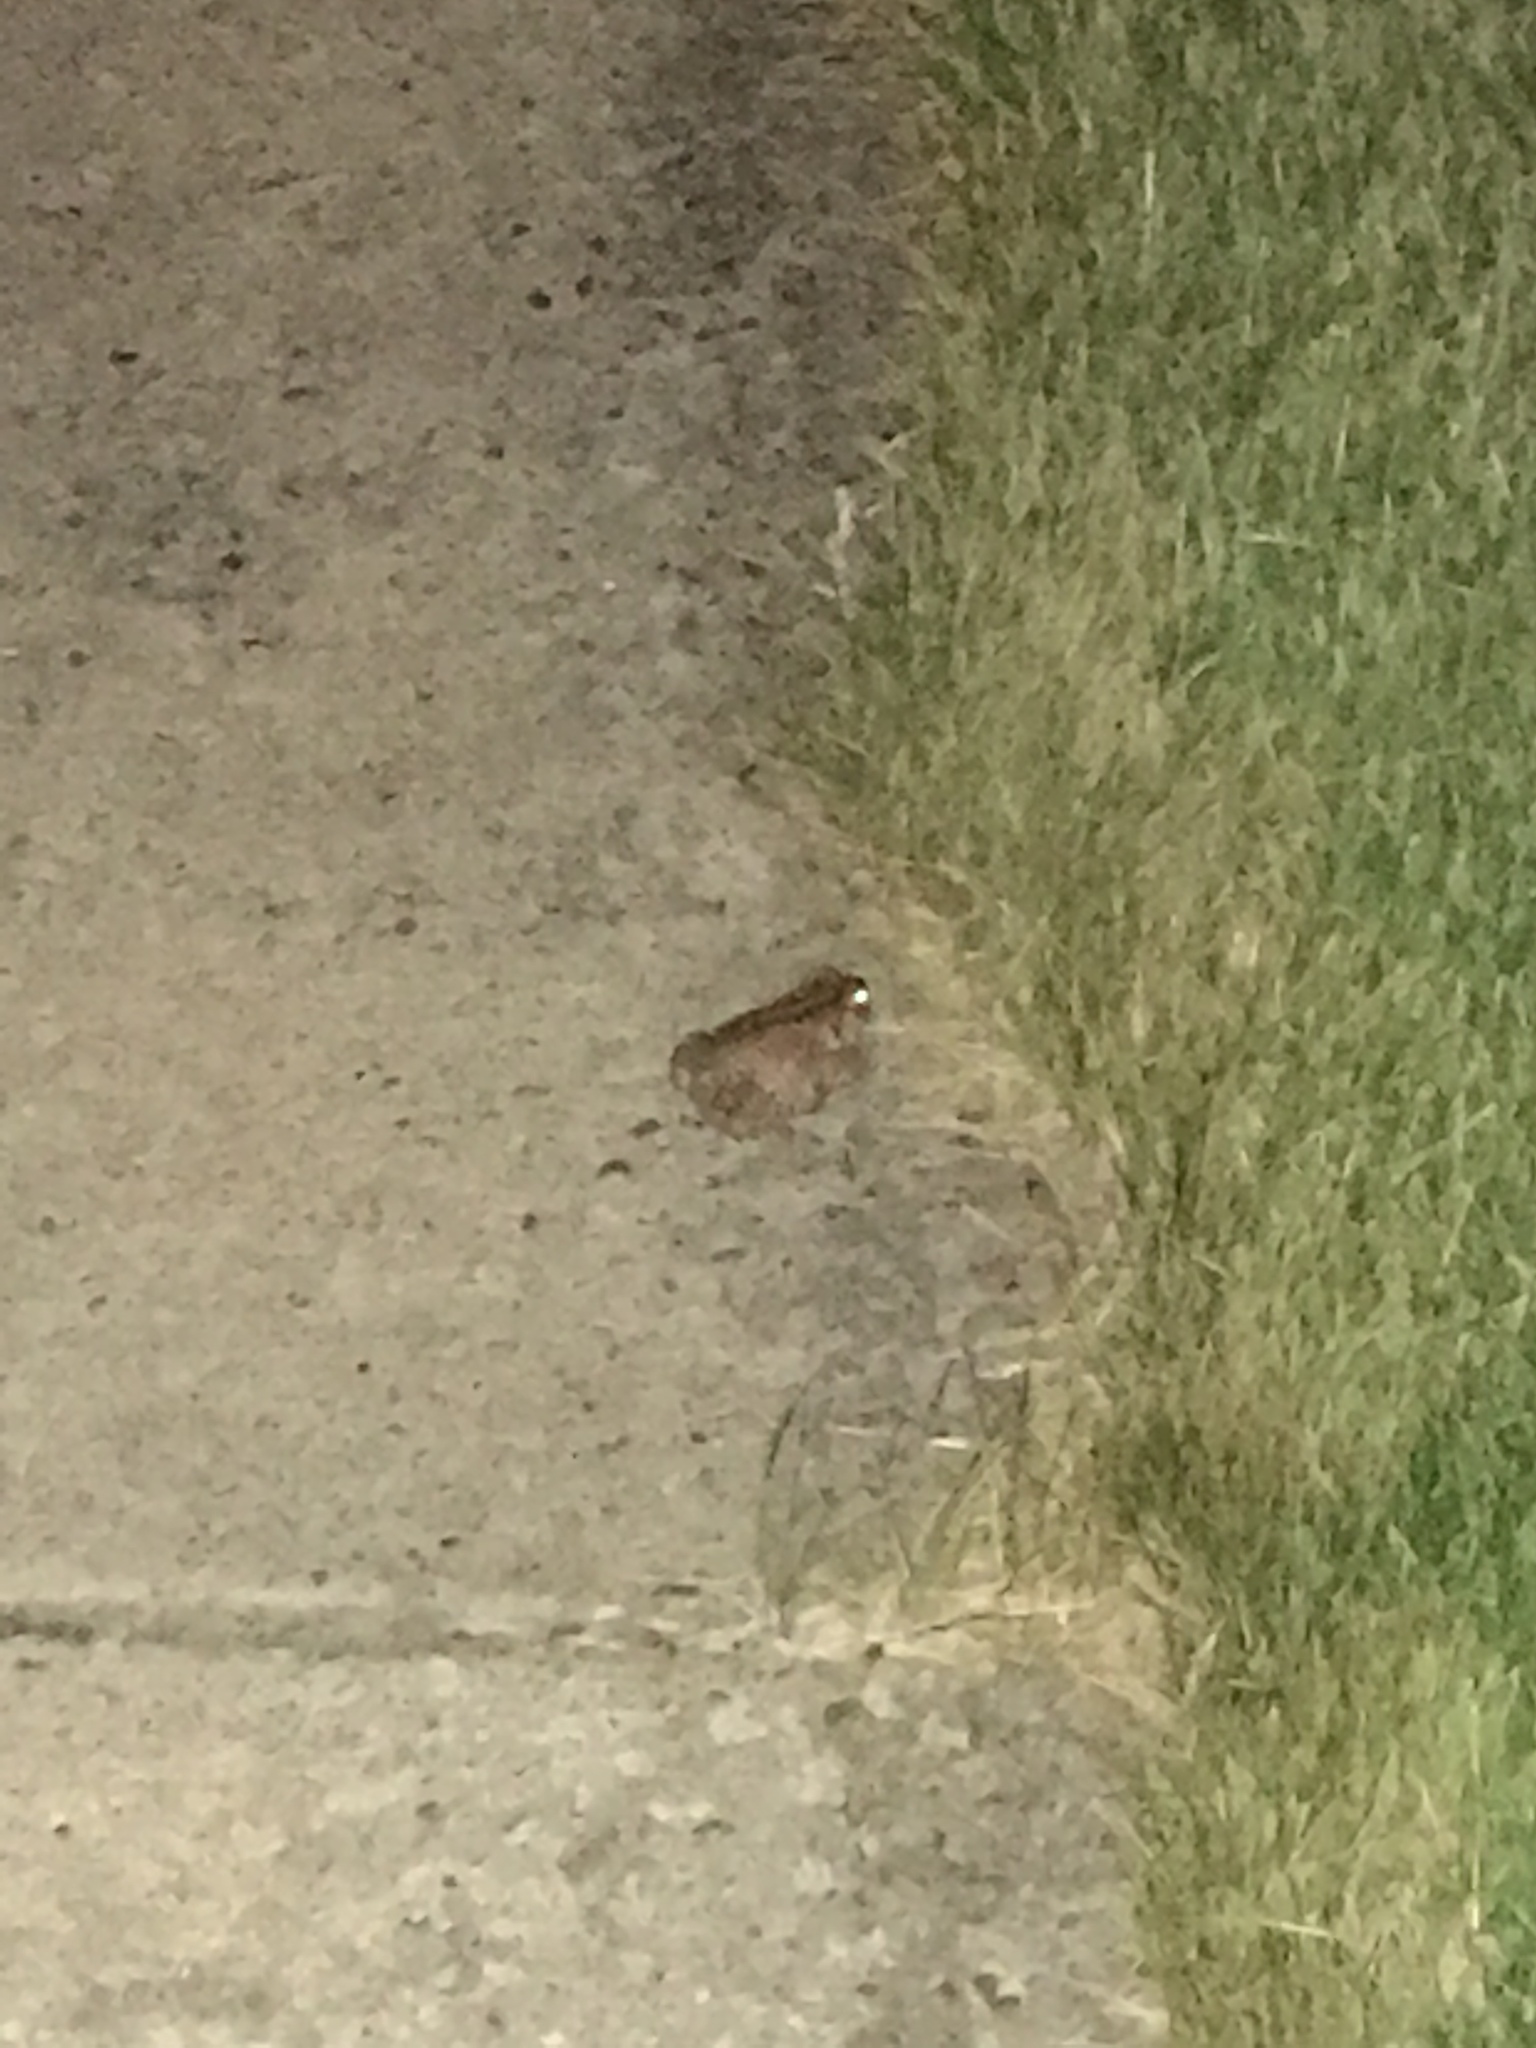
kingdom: Animalia
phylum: Chordata
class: Amphibia
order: Anura
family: Bufonidae
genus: Anaxyrus
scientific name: Anaxyrus
